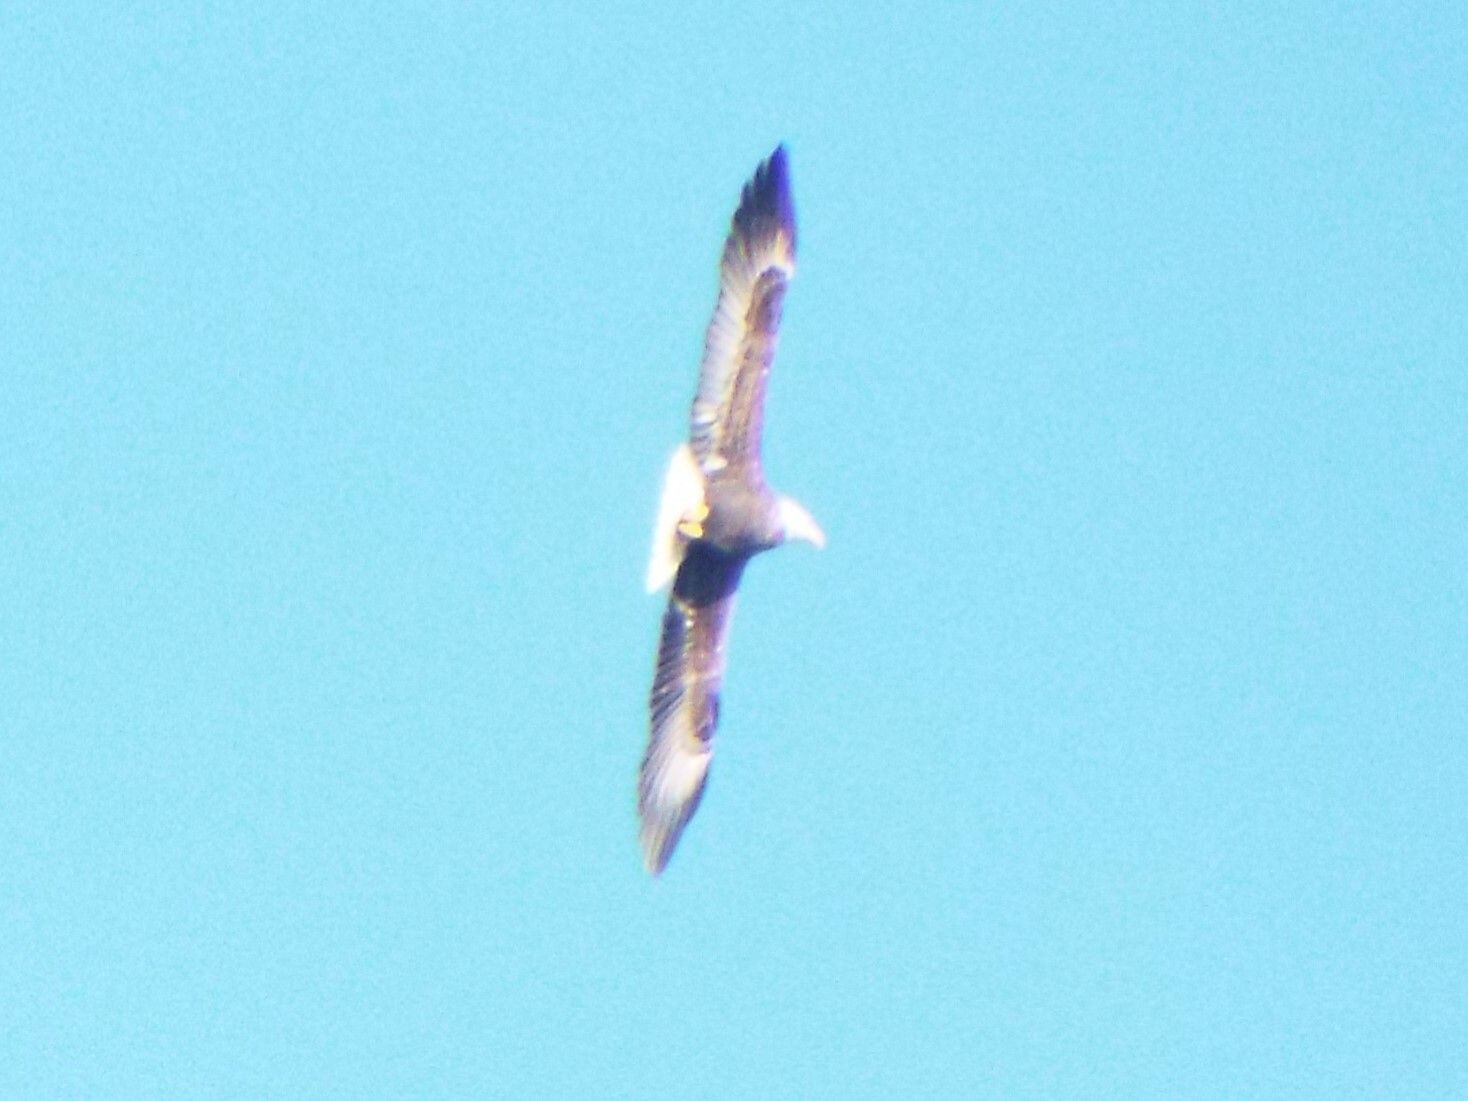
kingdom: Animalia
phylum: Chordata
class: Aves
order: Accipitriformes
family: Accipitridae
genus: Haliaeetus
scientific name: Haliaeetus leucocephalus
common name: Bald eagle
